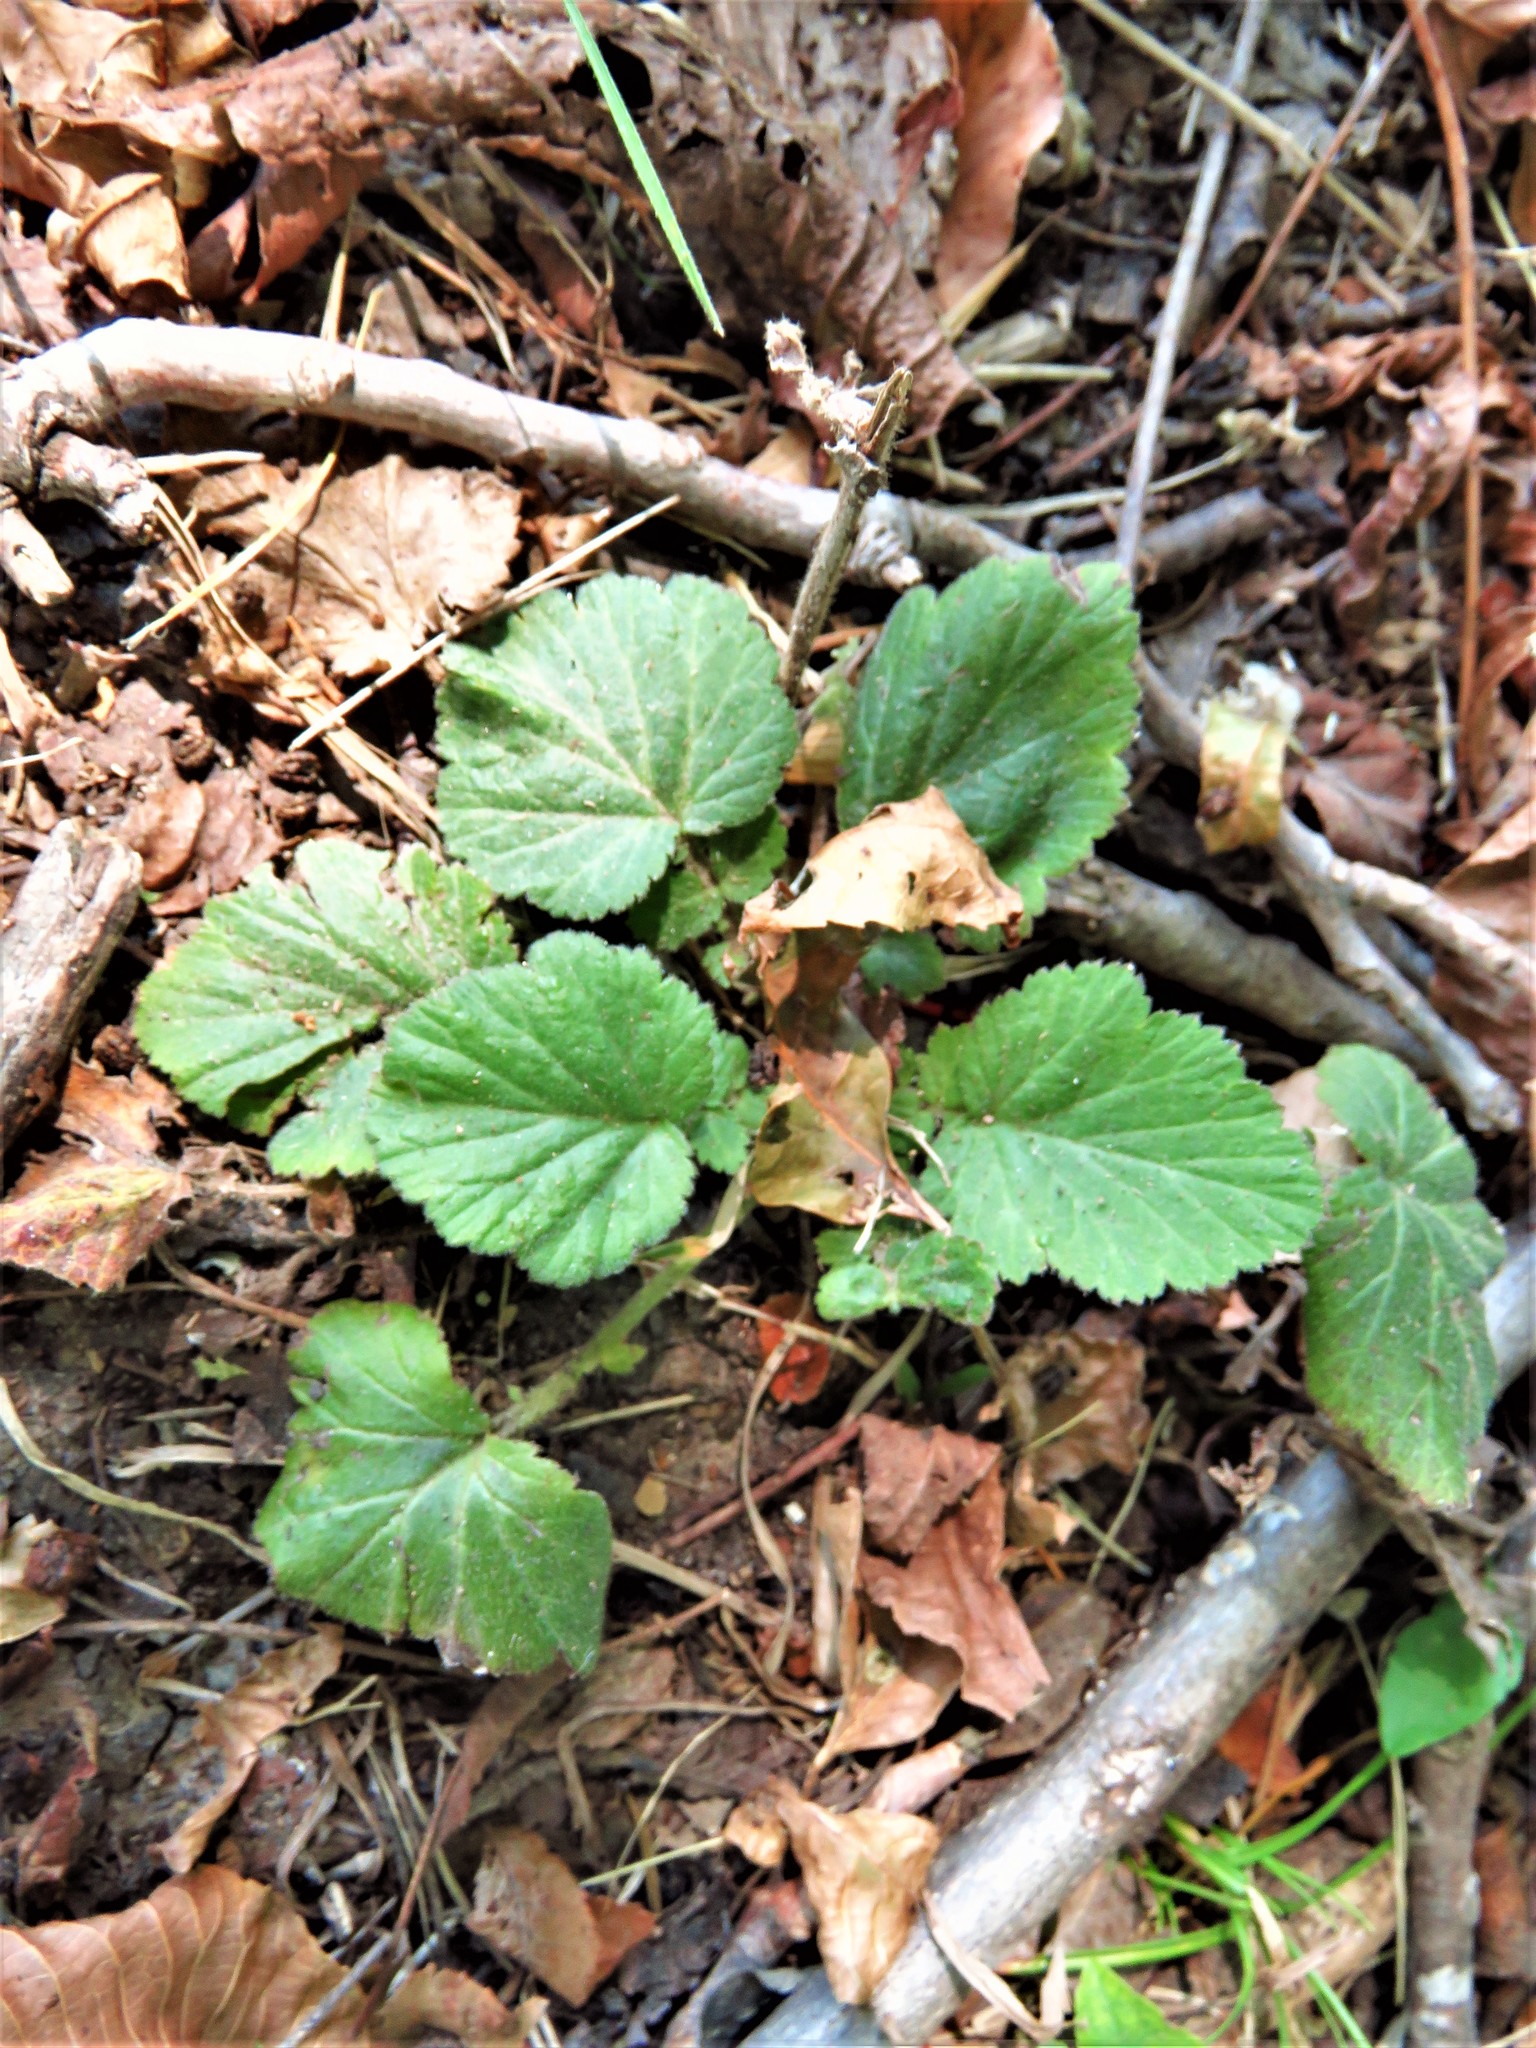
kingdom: Plantae
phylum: Tracheophyta
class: Magnoliopsida
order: Rosales
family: Rosaceae
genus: Geum
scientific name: Geum canadense
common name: White avens
